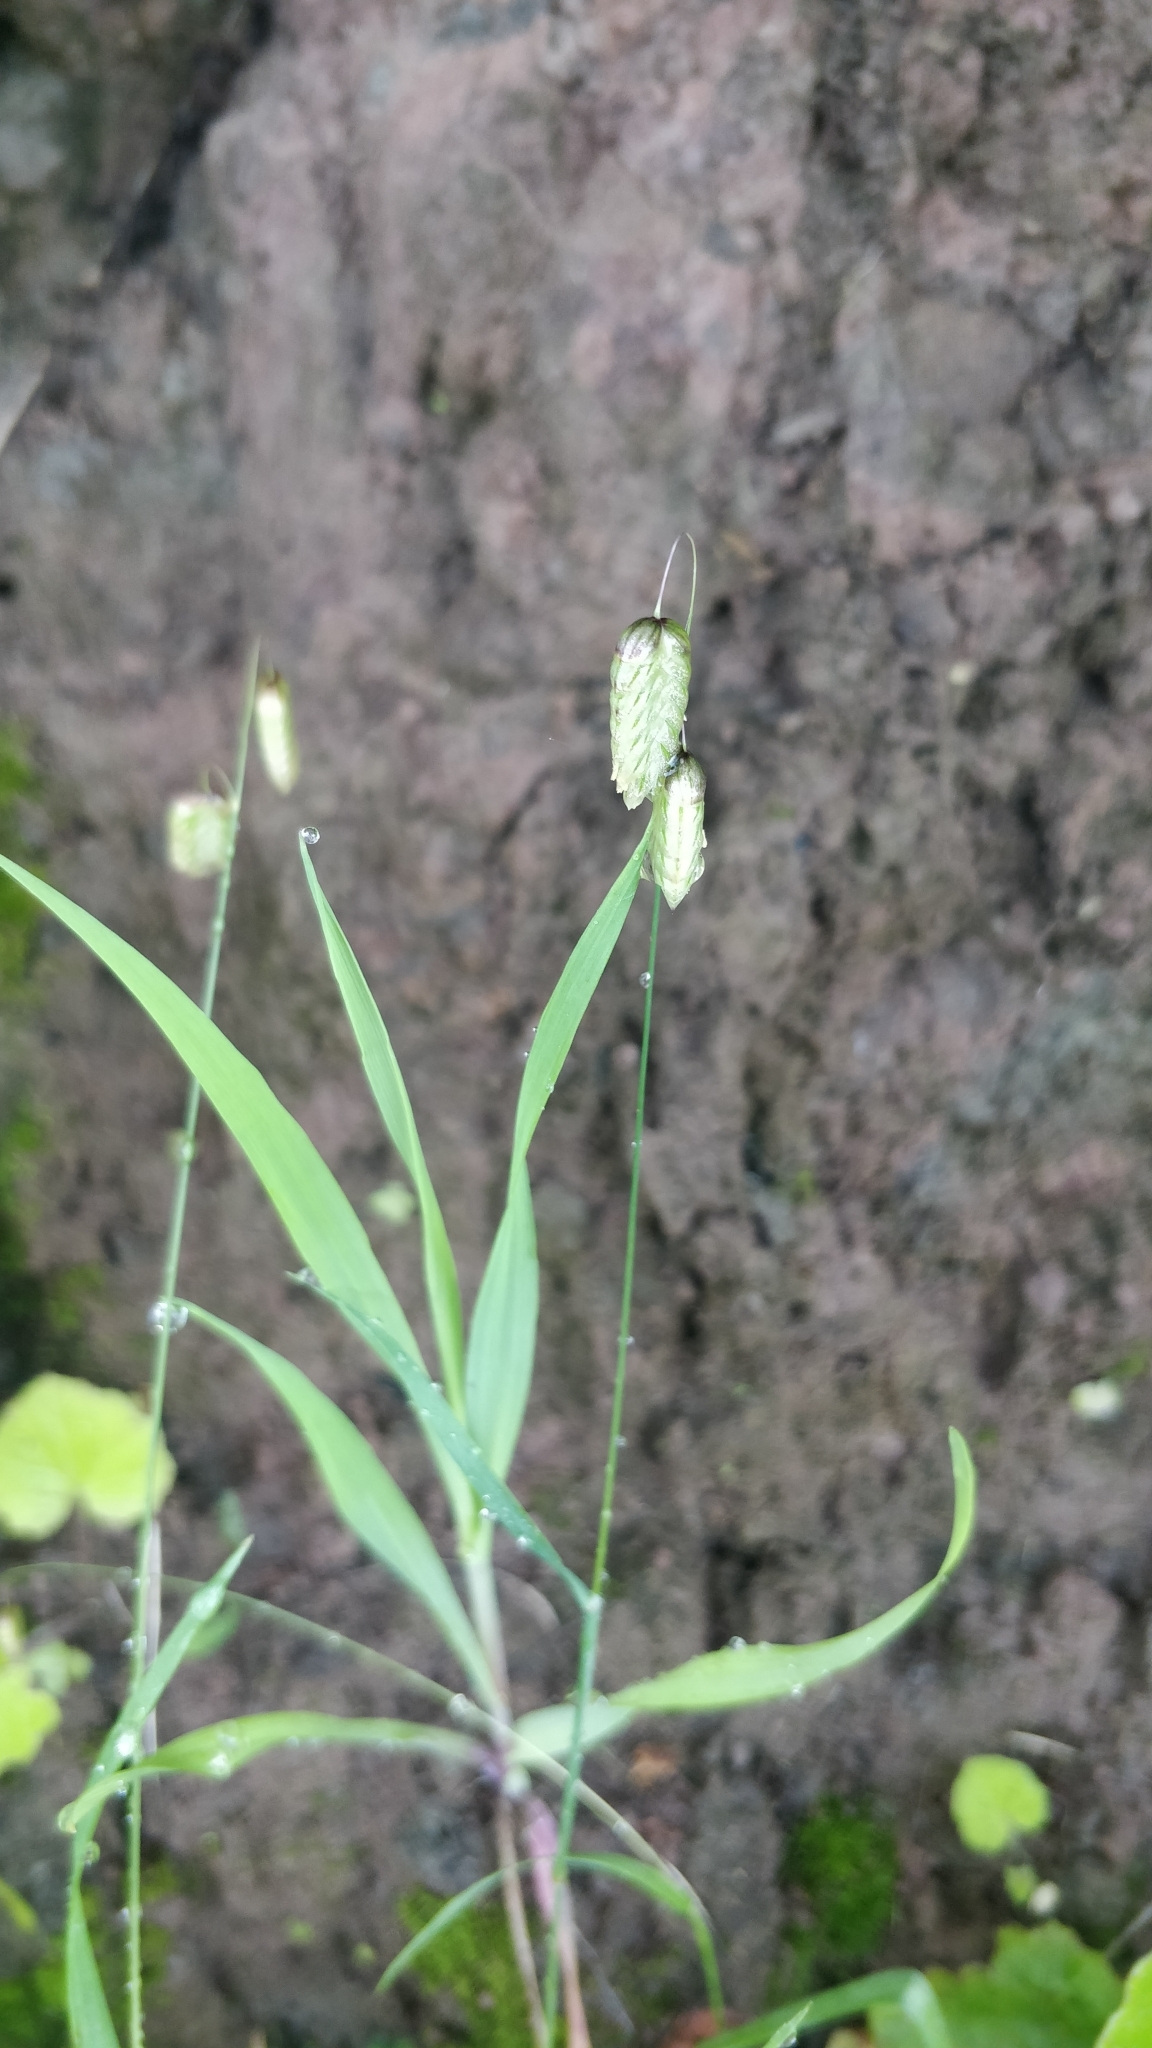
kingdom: Plantae
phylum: Tracheophyta
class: Liliopsida
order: Poales
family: Poaceae
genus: Briza
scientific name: Briza maxima
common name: Big quakinggrass
